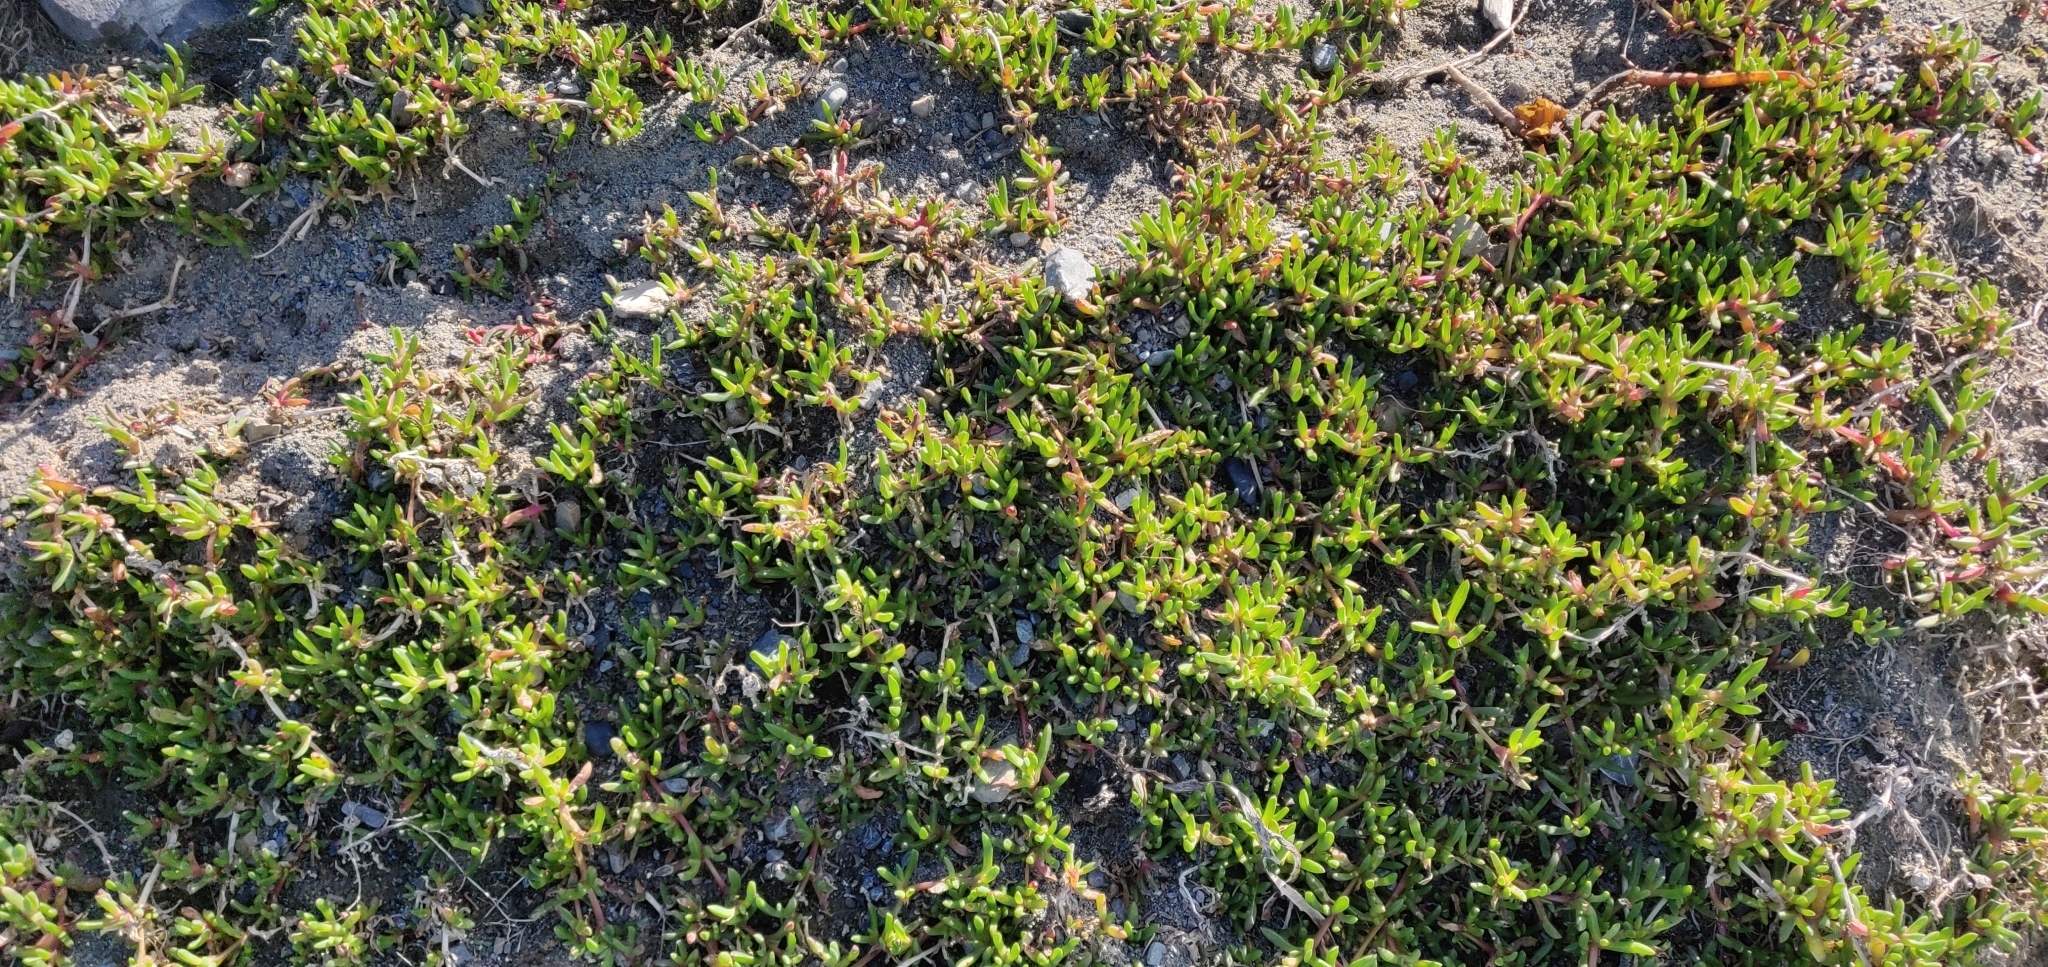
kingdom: Plantae
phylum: Tracheophyta
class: Magnoliopsida
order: Caryophyllales
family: Aizoaceae
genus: Disphyma
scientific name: Disphyma australe
